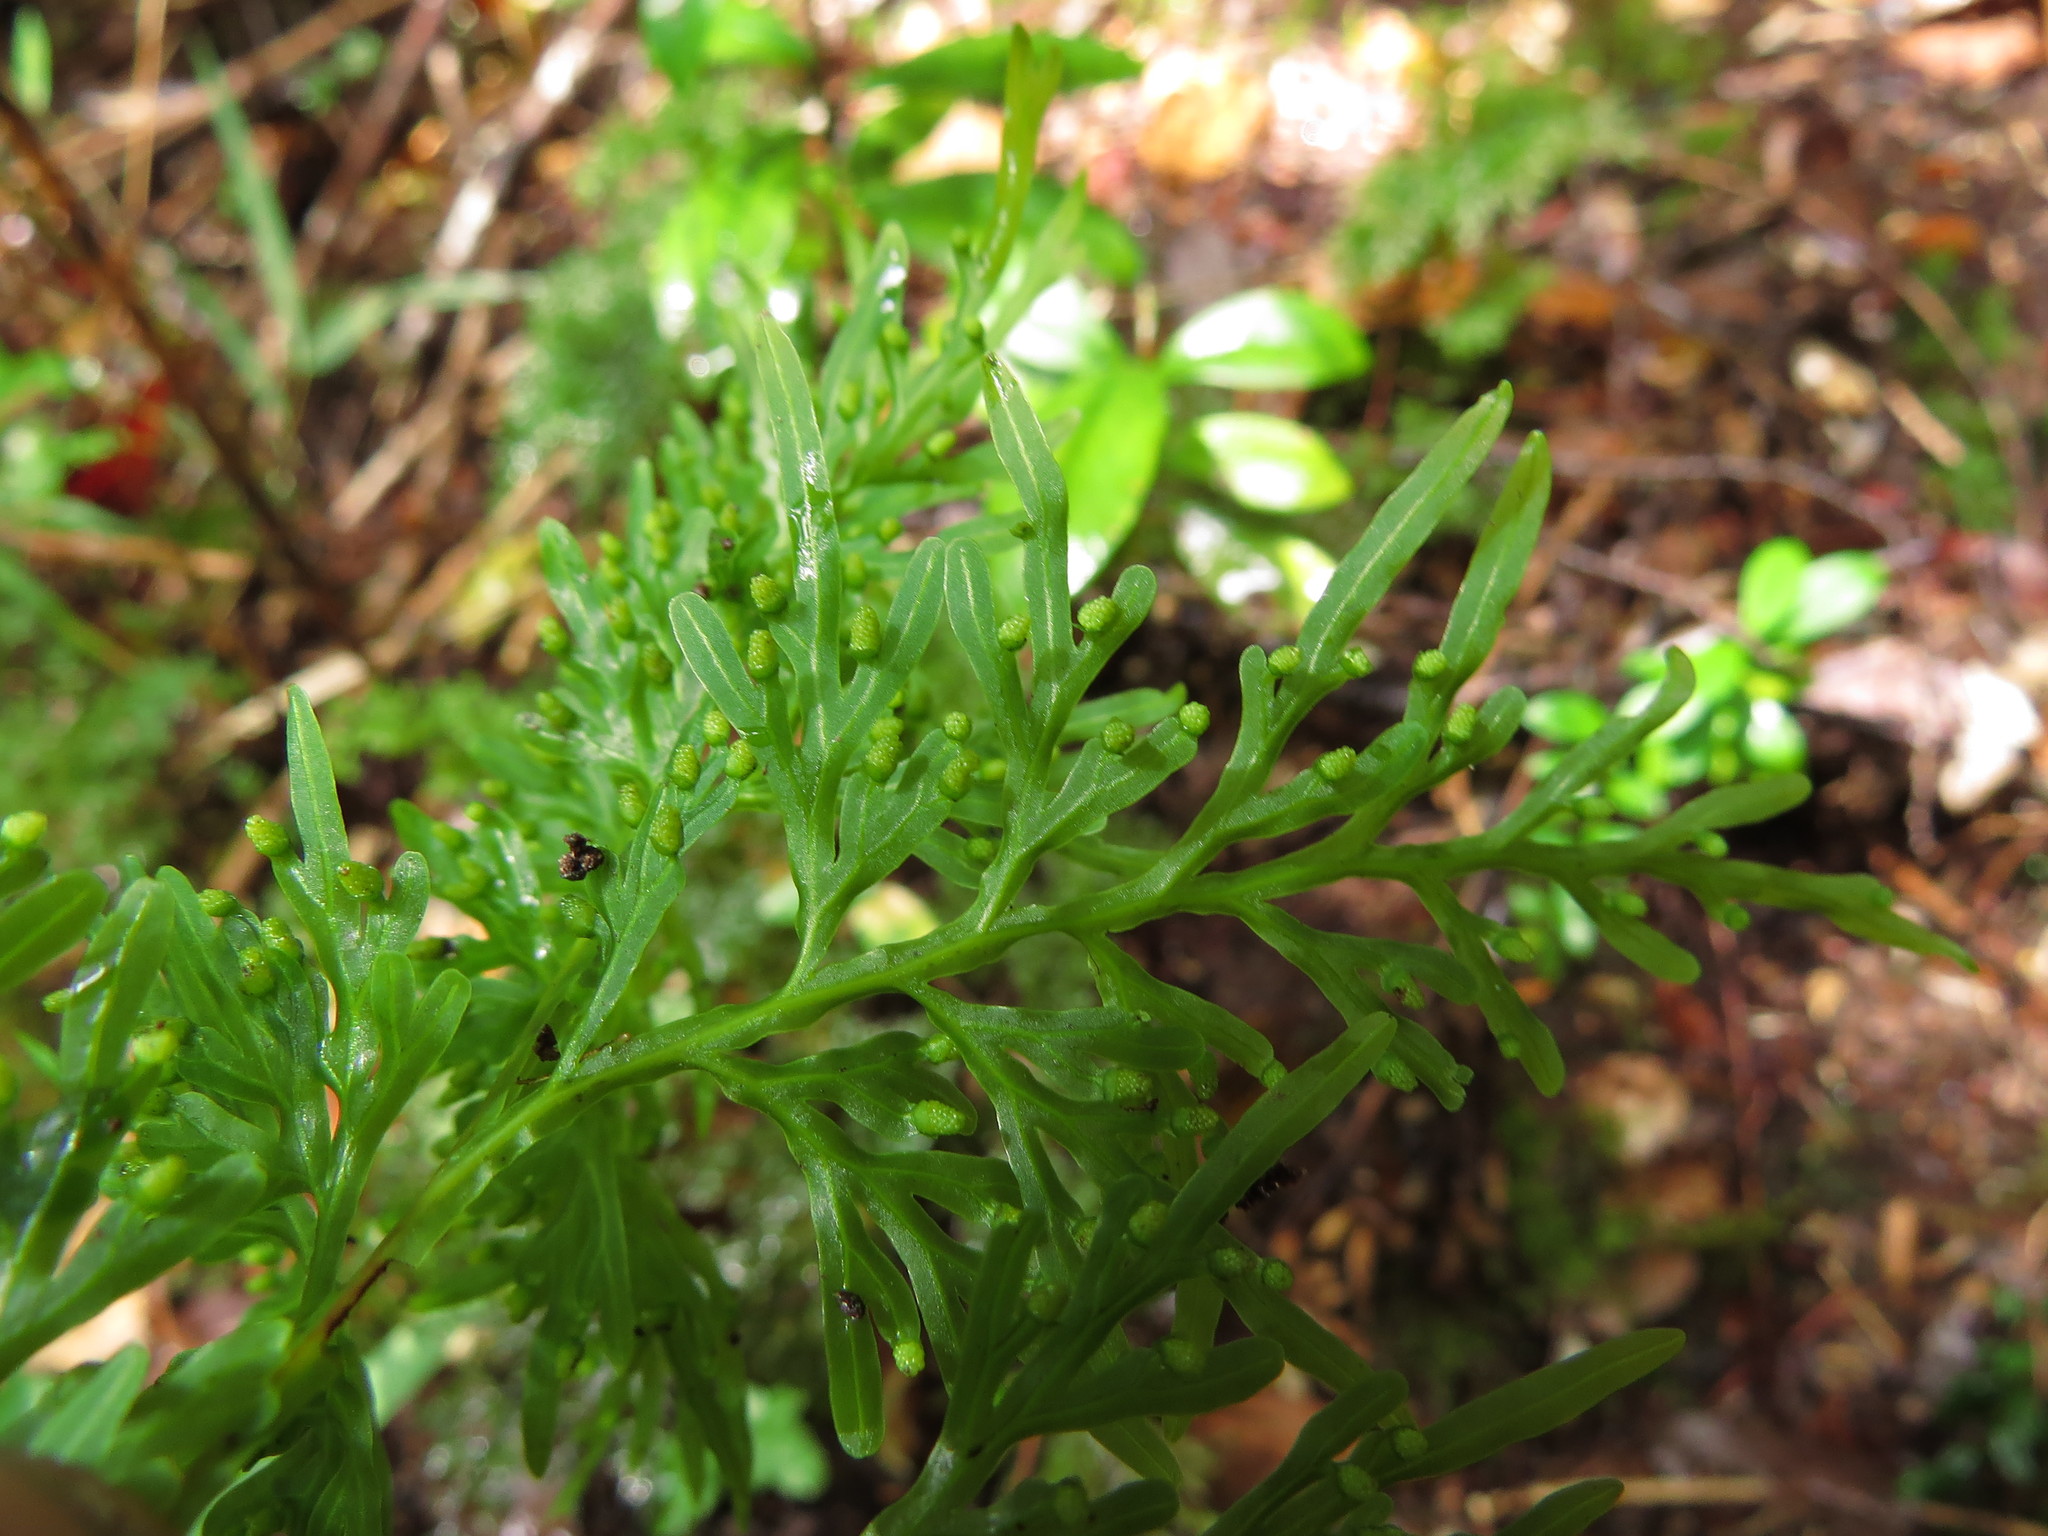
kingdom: Plantae
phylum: Tracheophyta
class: Polypodiopsida
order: Hymenophyllales
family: Hymenophyllaceae
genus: Hymenophyllum
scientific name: Hymenophyllum fuciforme
